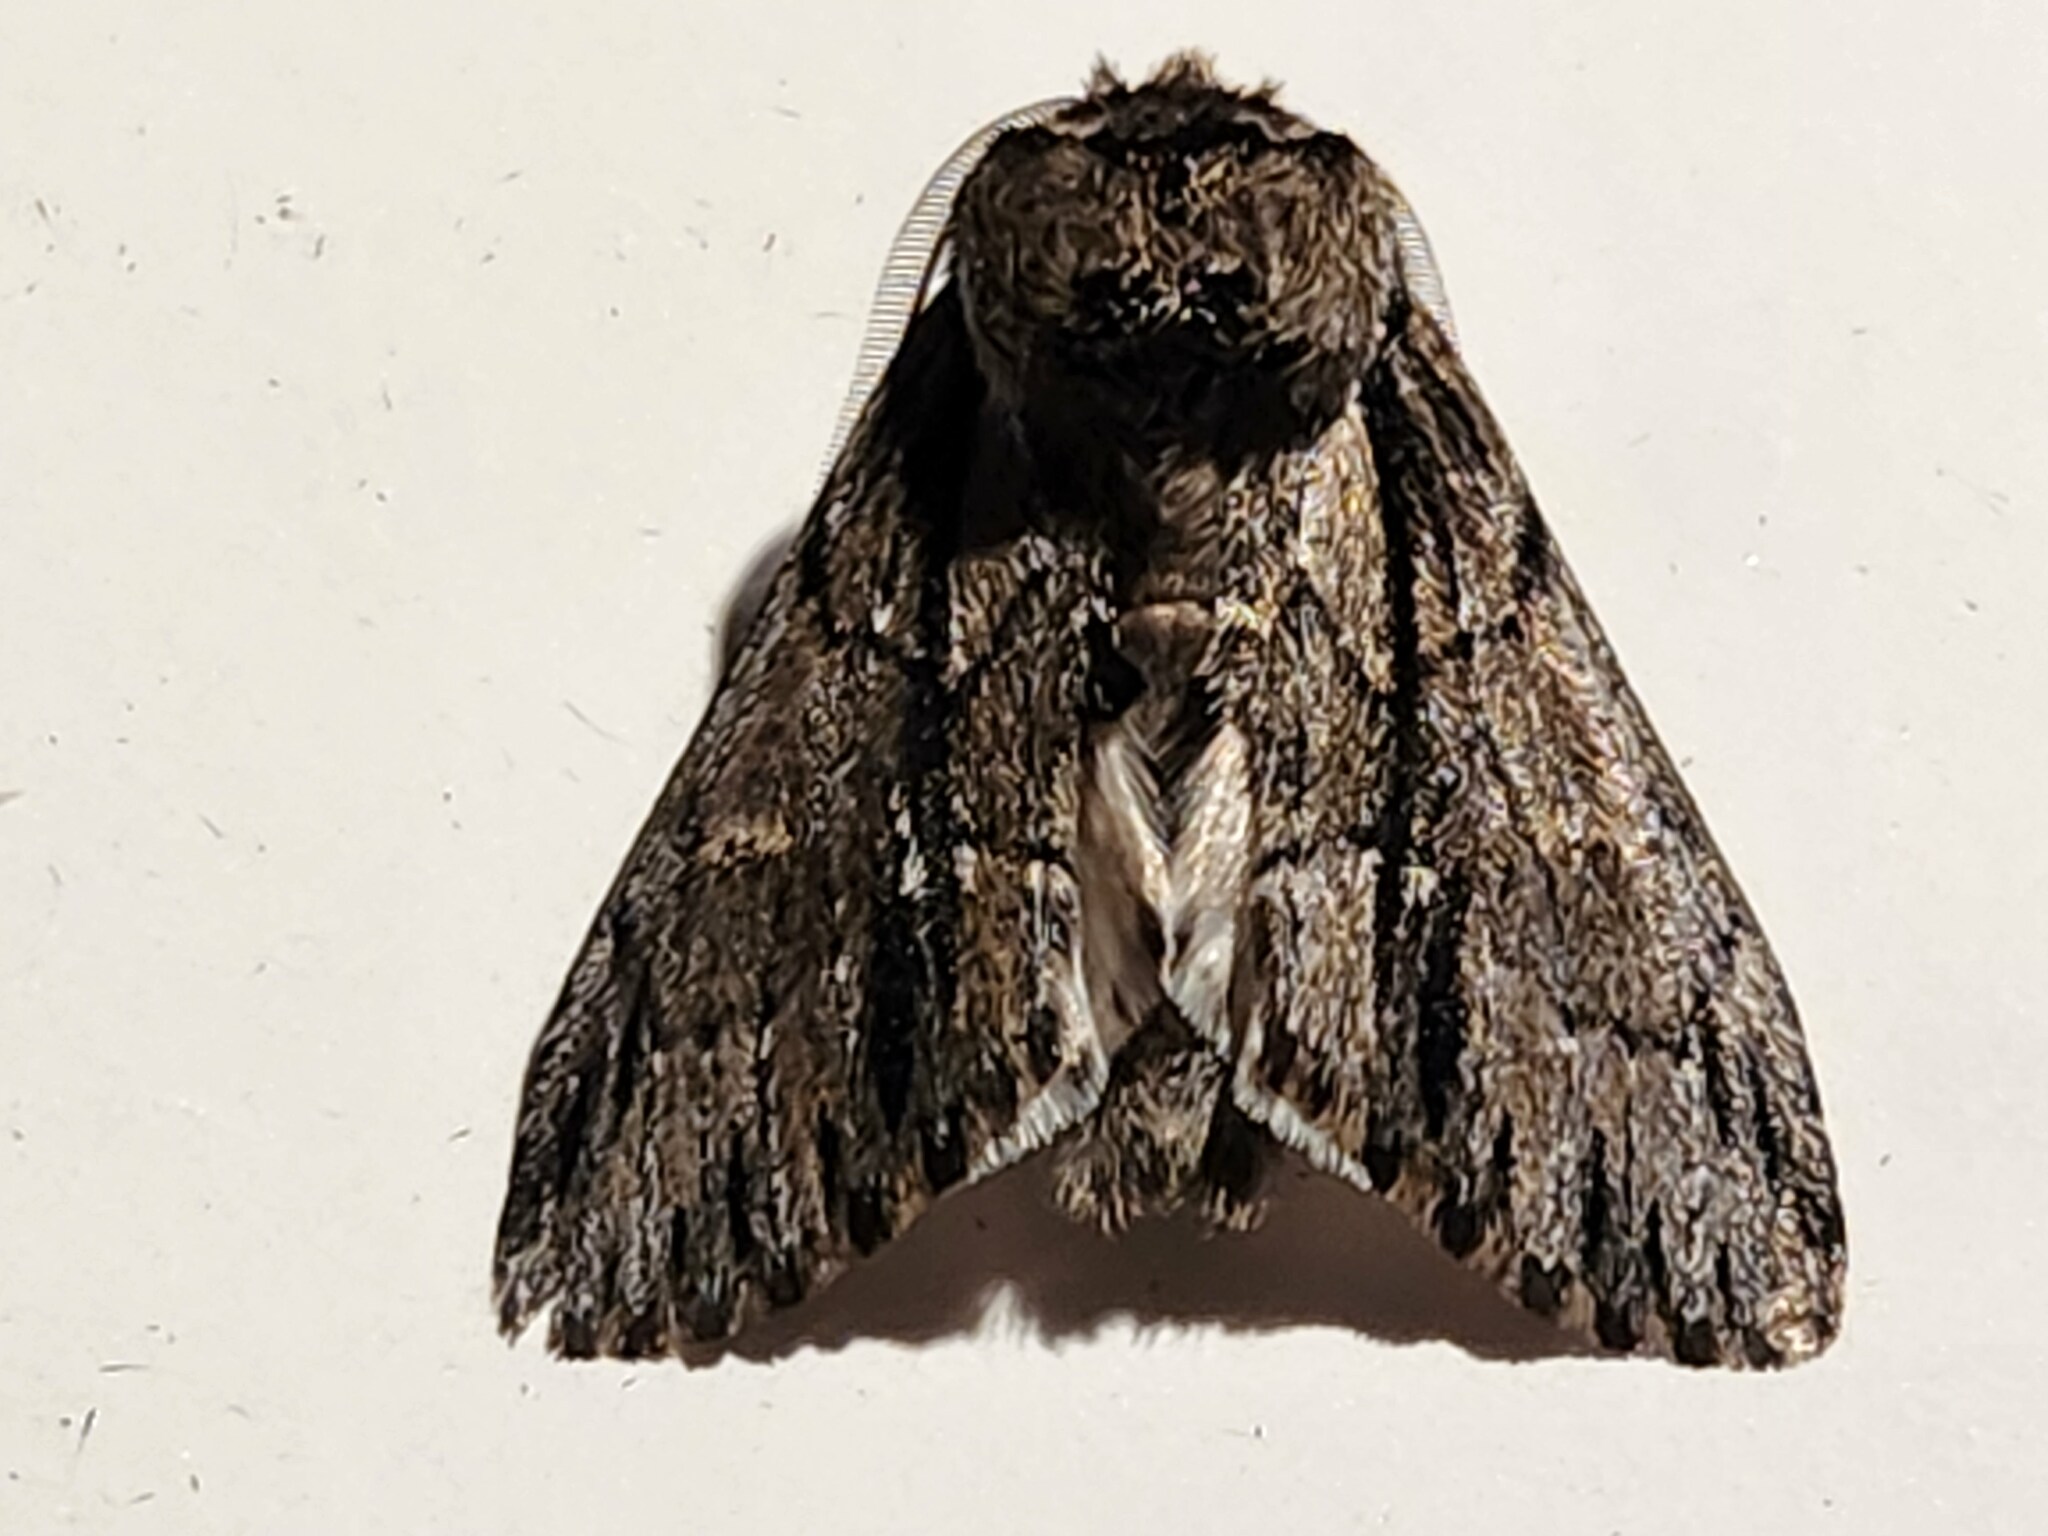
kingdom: Animalia
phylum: Arthropoda
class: Insecta
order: Lepidoptera
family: Notodontidae
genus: Paraeschra
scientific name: Paraeschra georgica
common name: Georgian prominent
